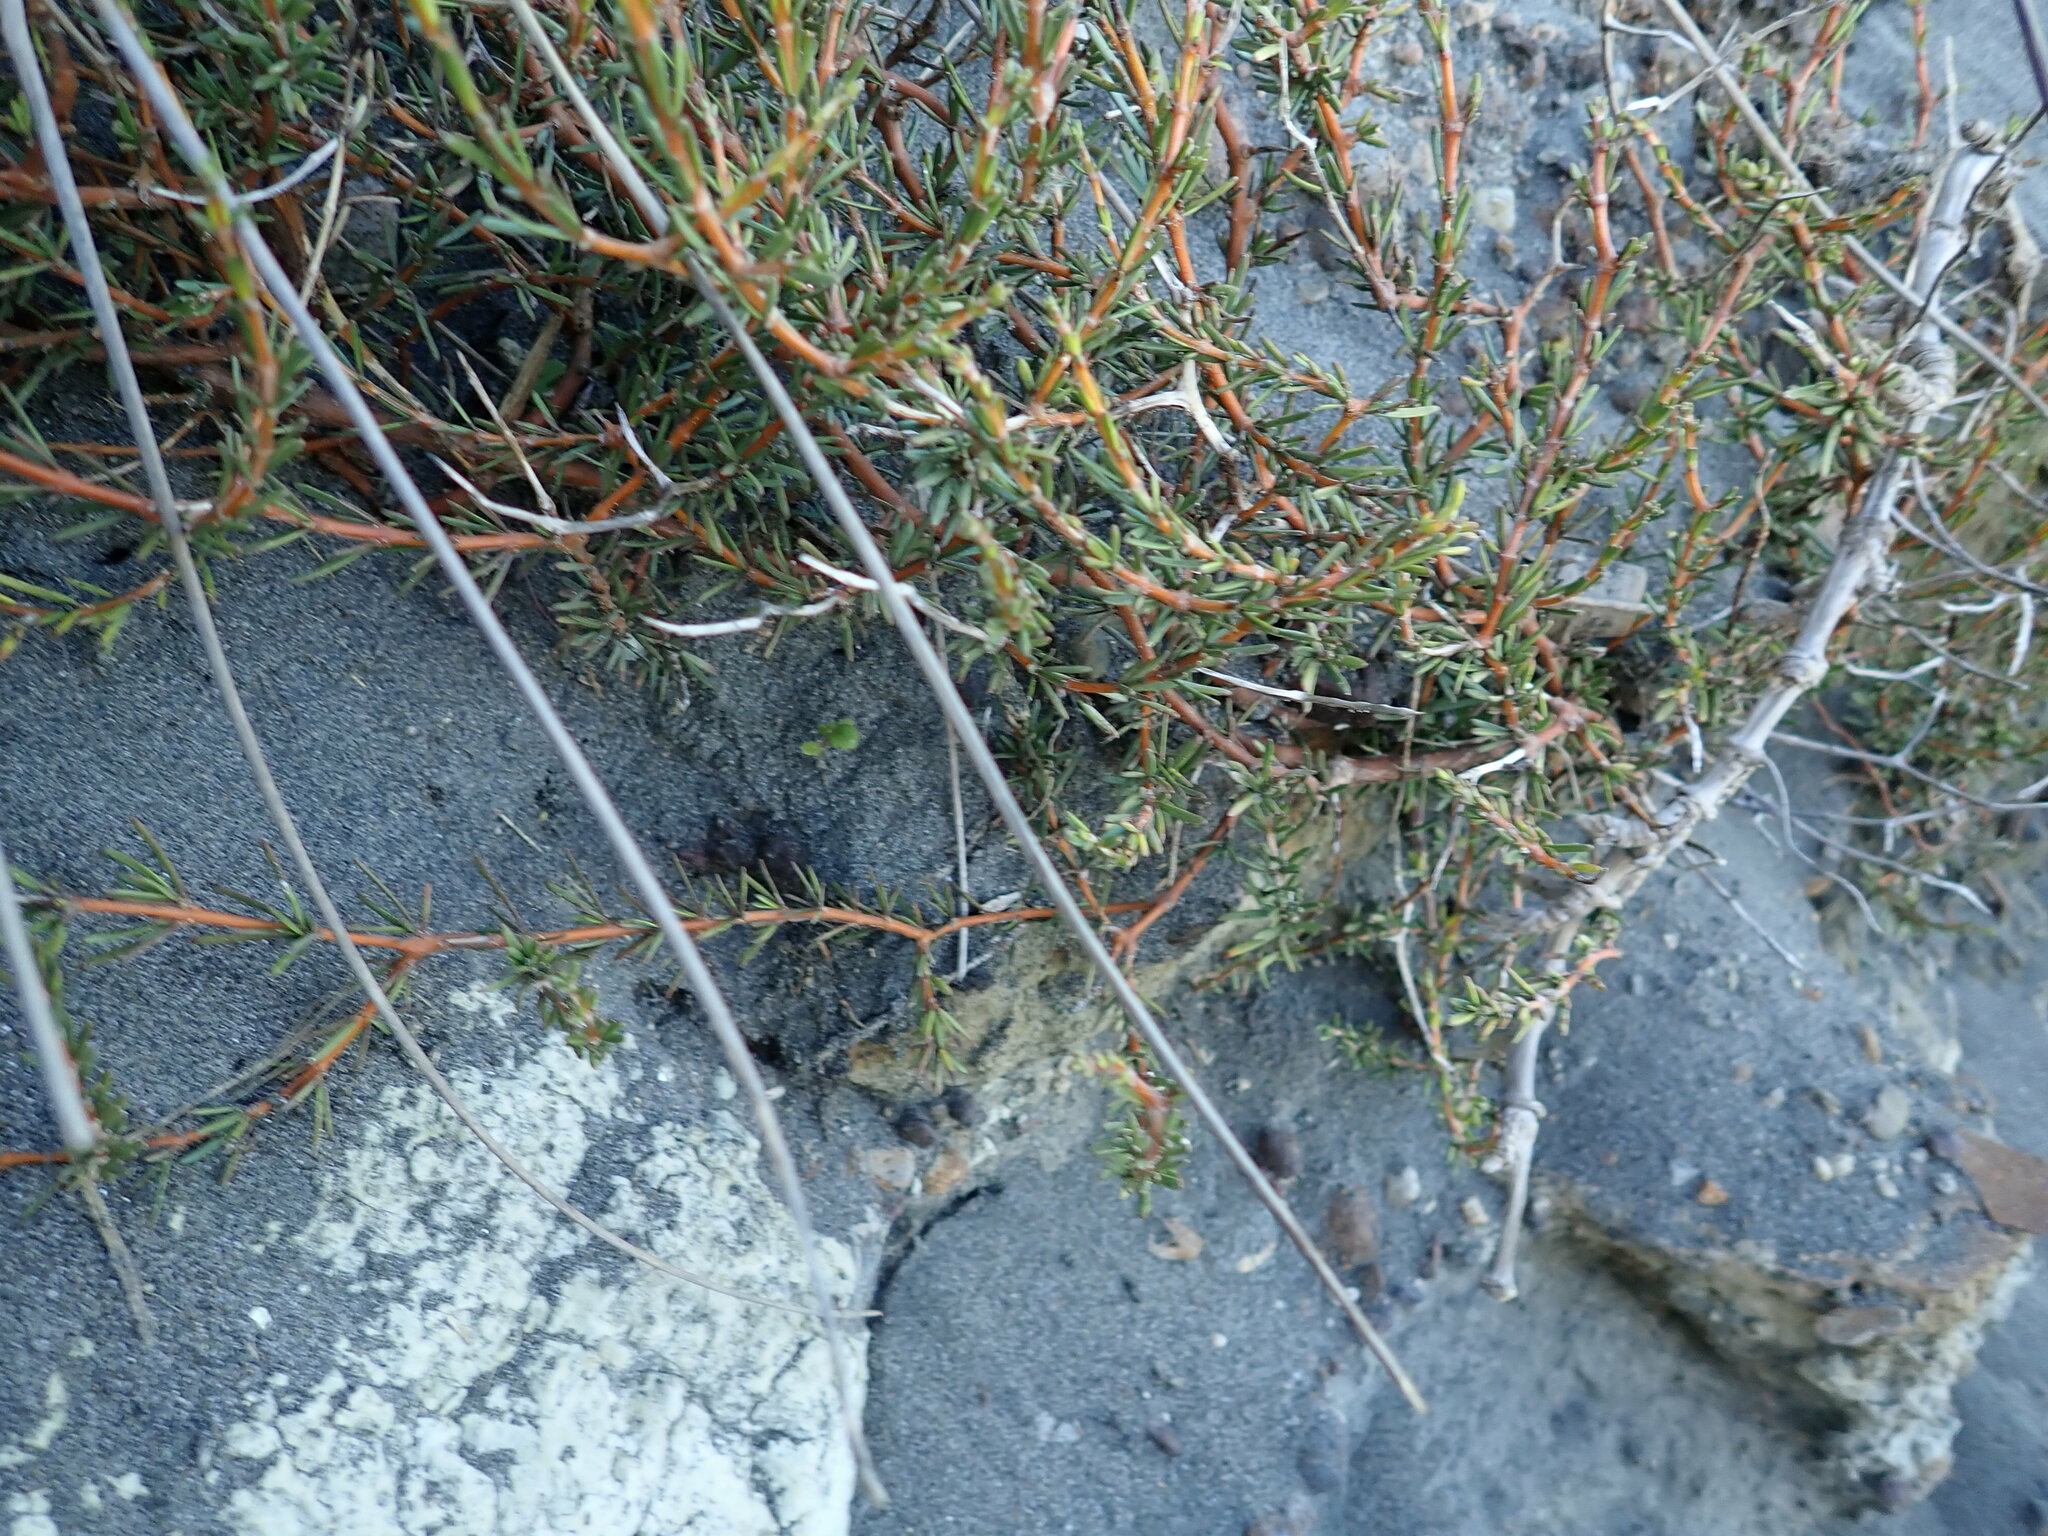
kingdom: Plantae
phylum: Tracheophyta
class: Magnoliopsida
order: Gentianales
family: Rubiaceae
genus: Coprosma
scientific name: Coprosma acerosa
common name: Sand coprosma
